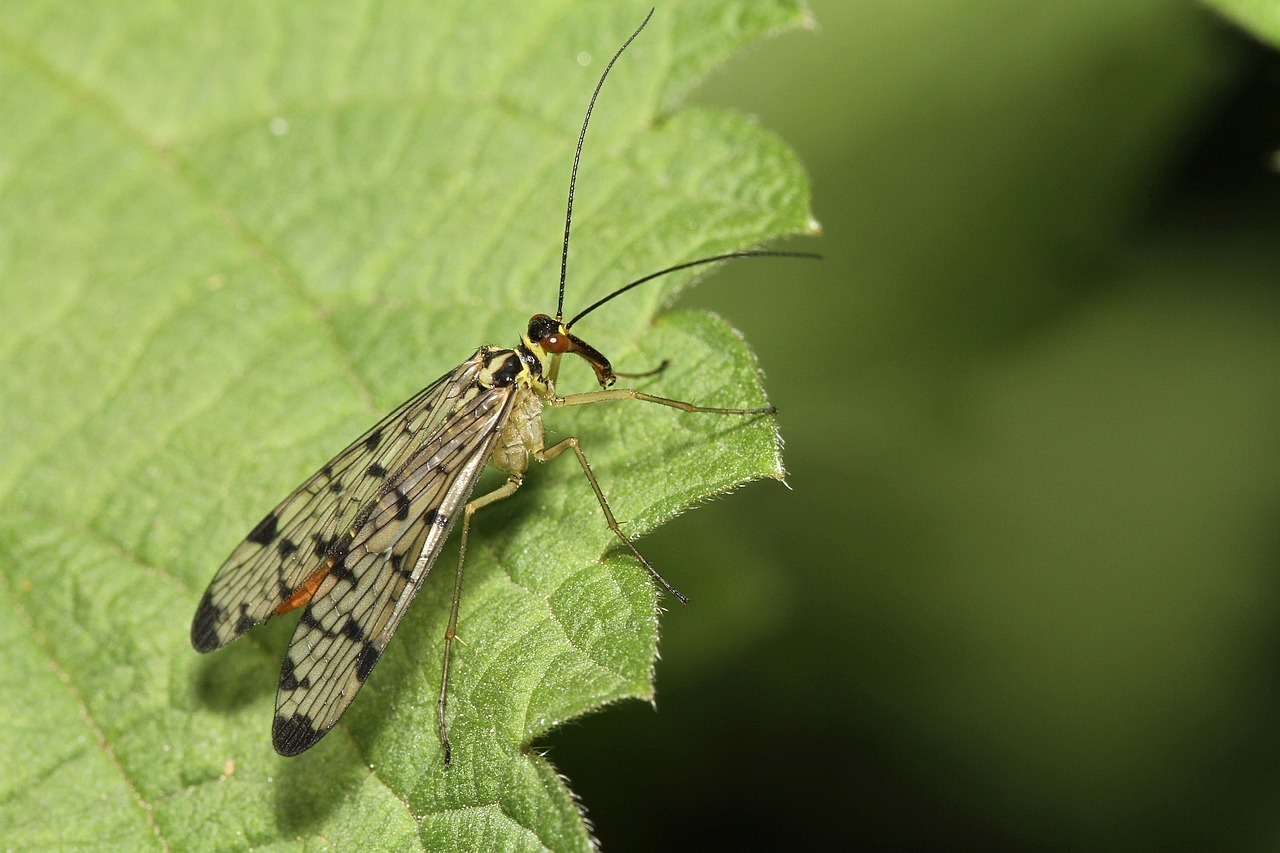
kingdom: Animalia
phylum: Arthropoda
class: Insecta
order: Mecoptera
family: Panorpidae
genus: Panorpa
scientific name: Panorpa germanica
